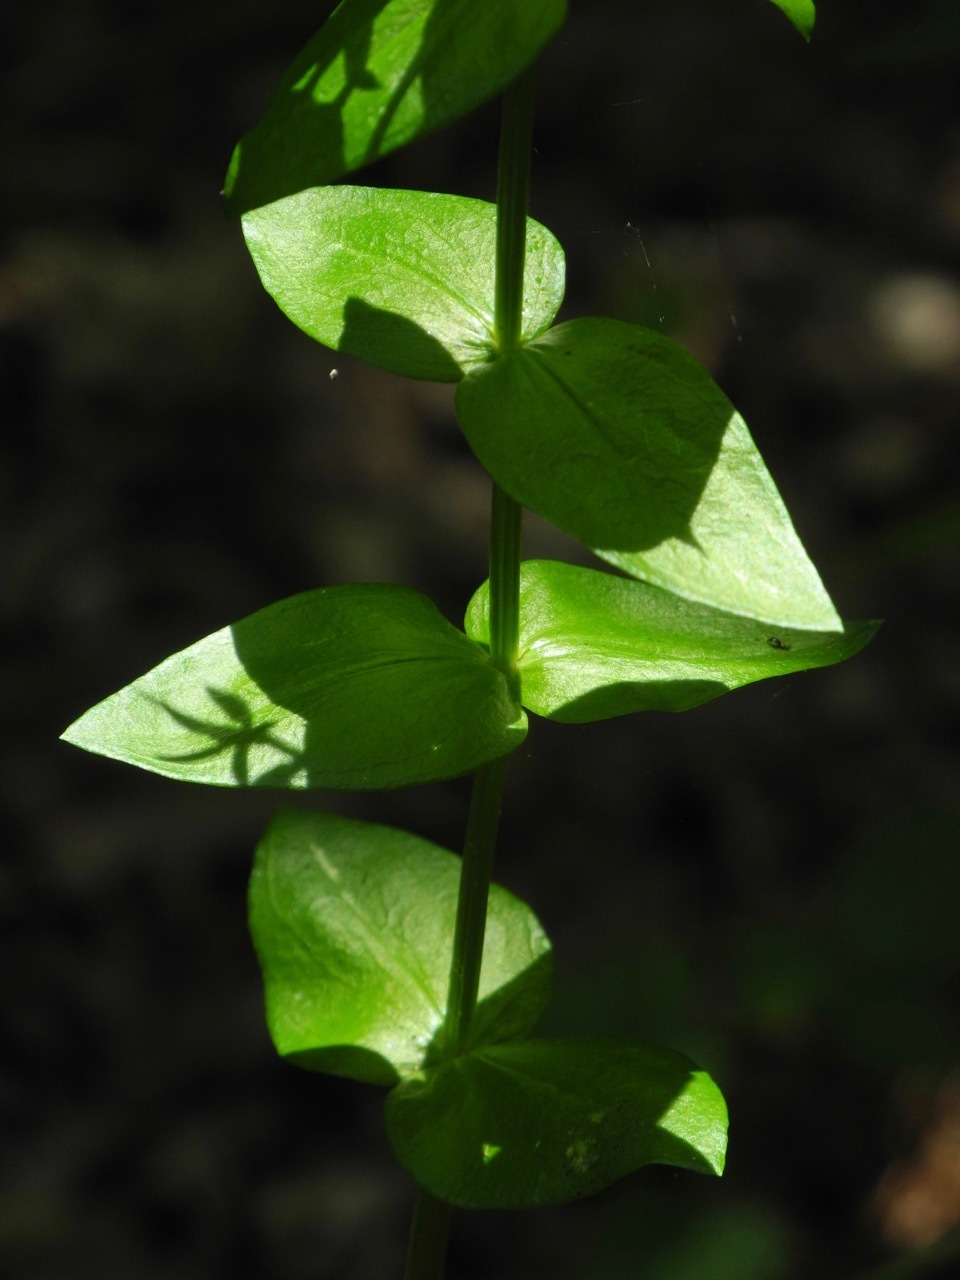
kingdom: Plantae
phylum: Tracheophyta
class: Magnoliopsida
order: Gentianales
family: Gentianaceae
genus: Sabatia
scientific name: Sabatia angularis
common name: Rose-pink
